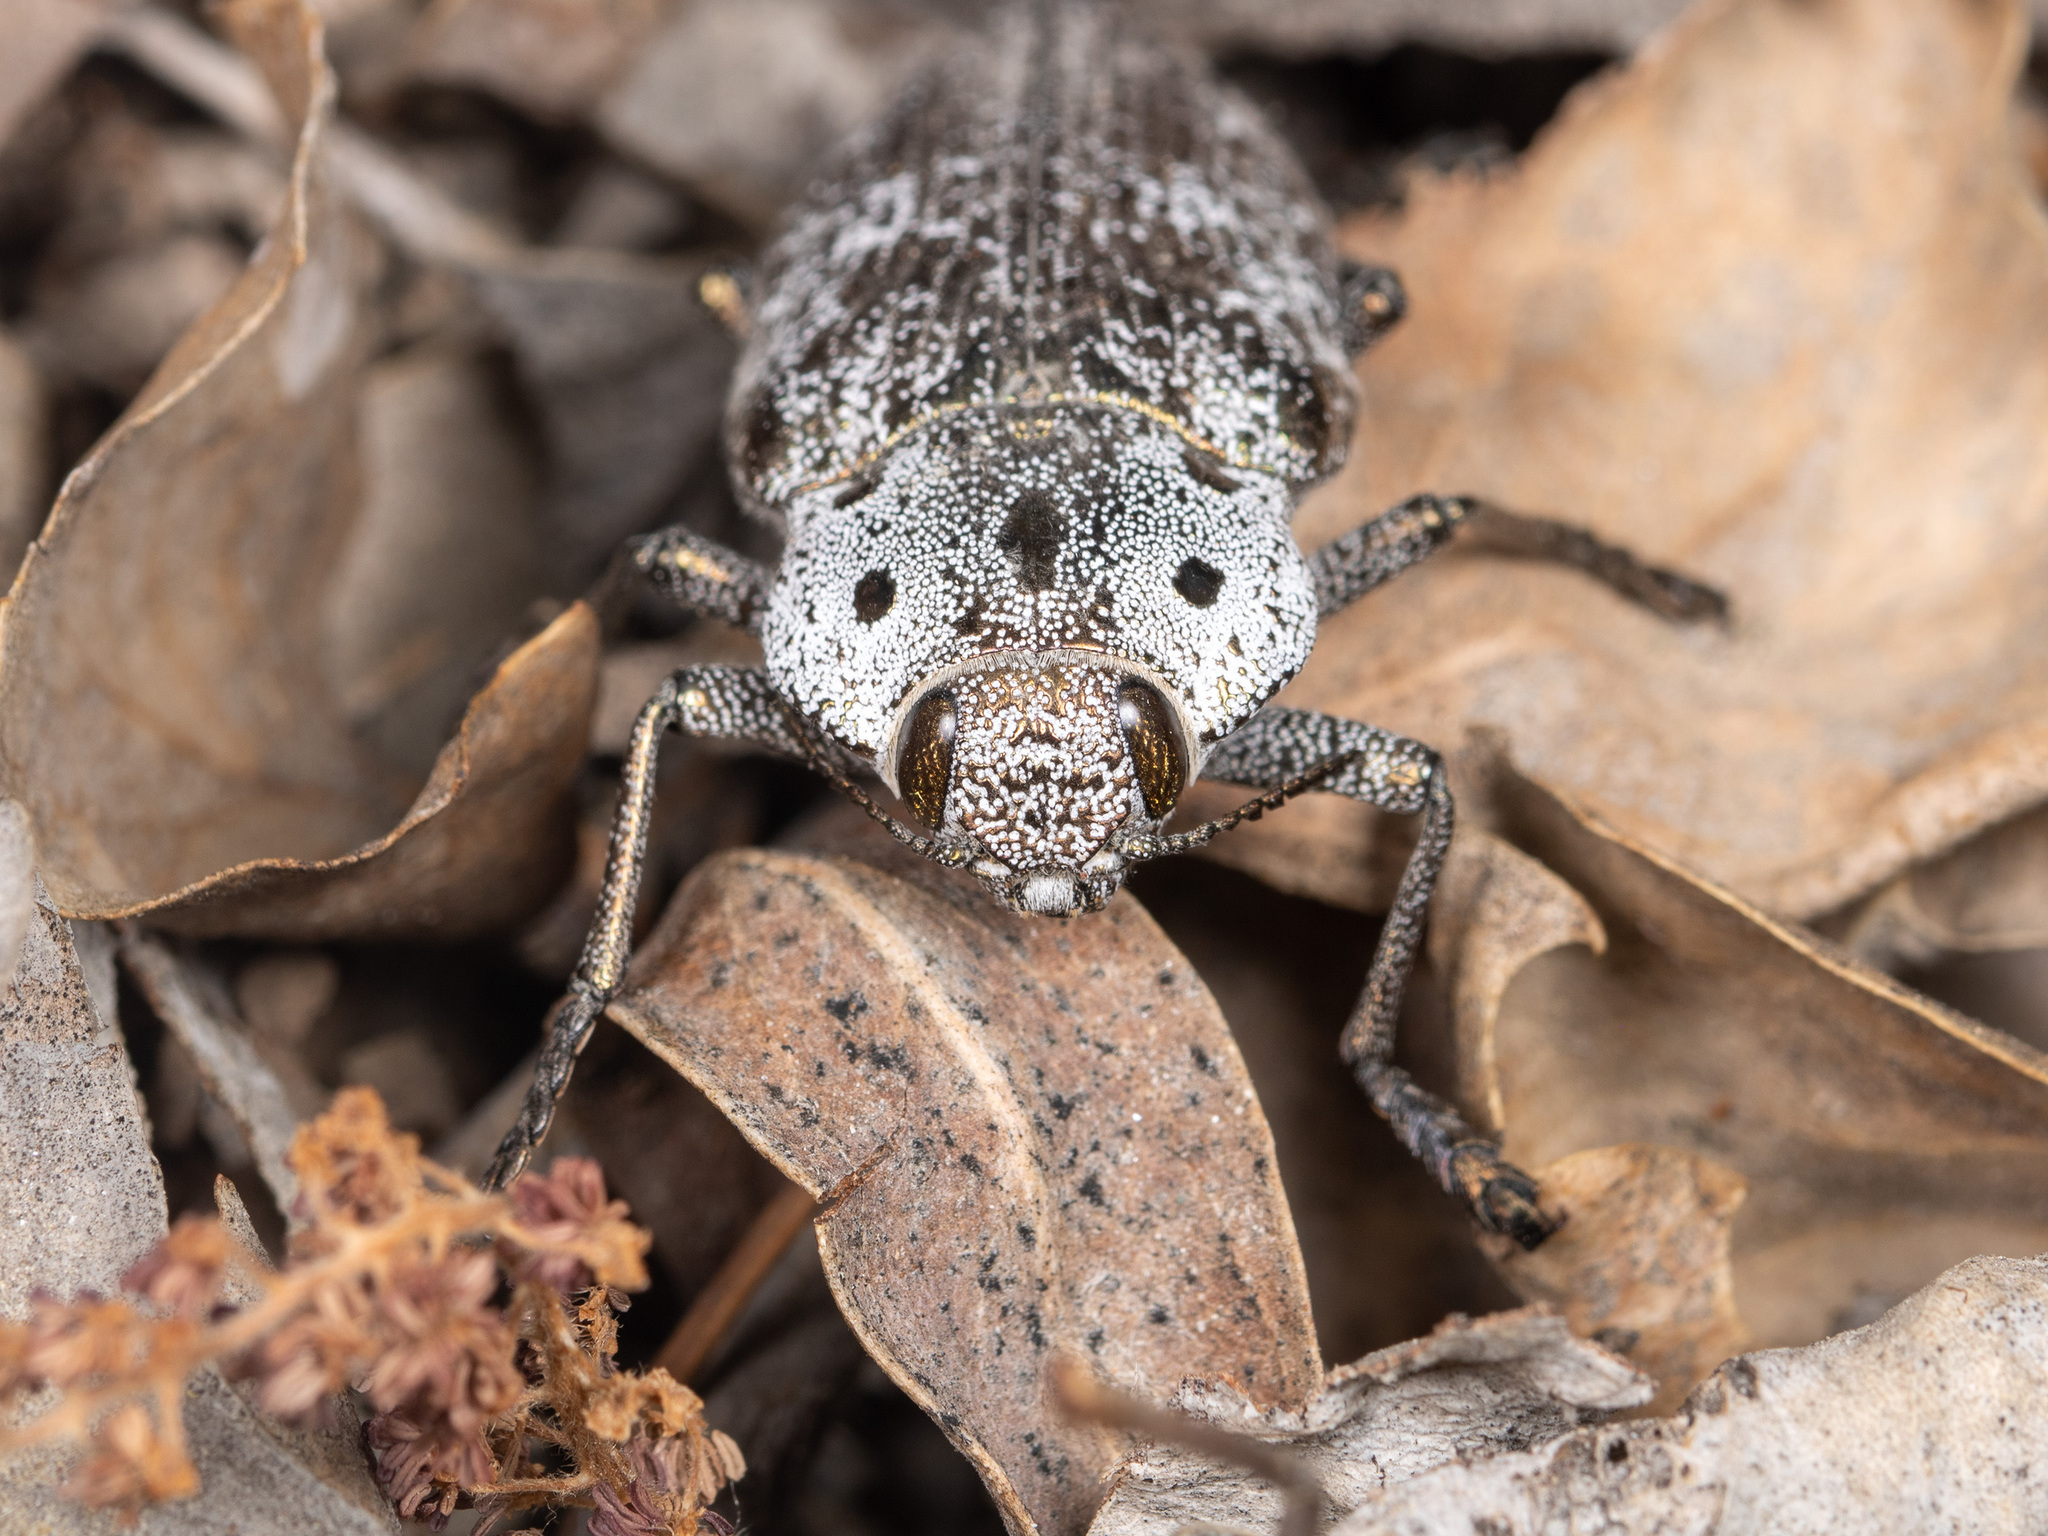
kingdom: Animalia
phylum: Arthropoda
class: Insecta
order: Coleoptera
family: Buprestidae
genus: Capnodis
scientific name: Capnodis miliaris
